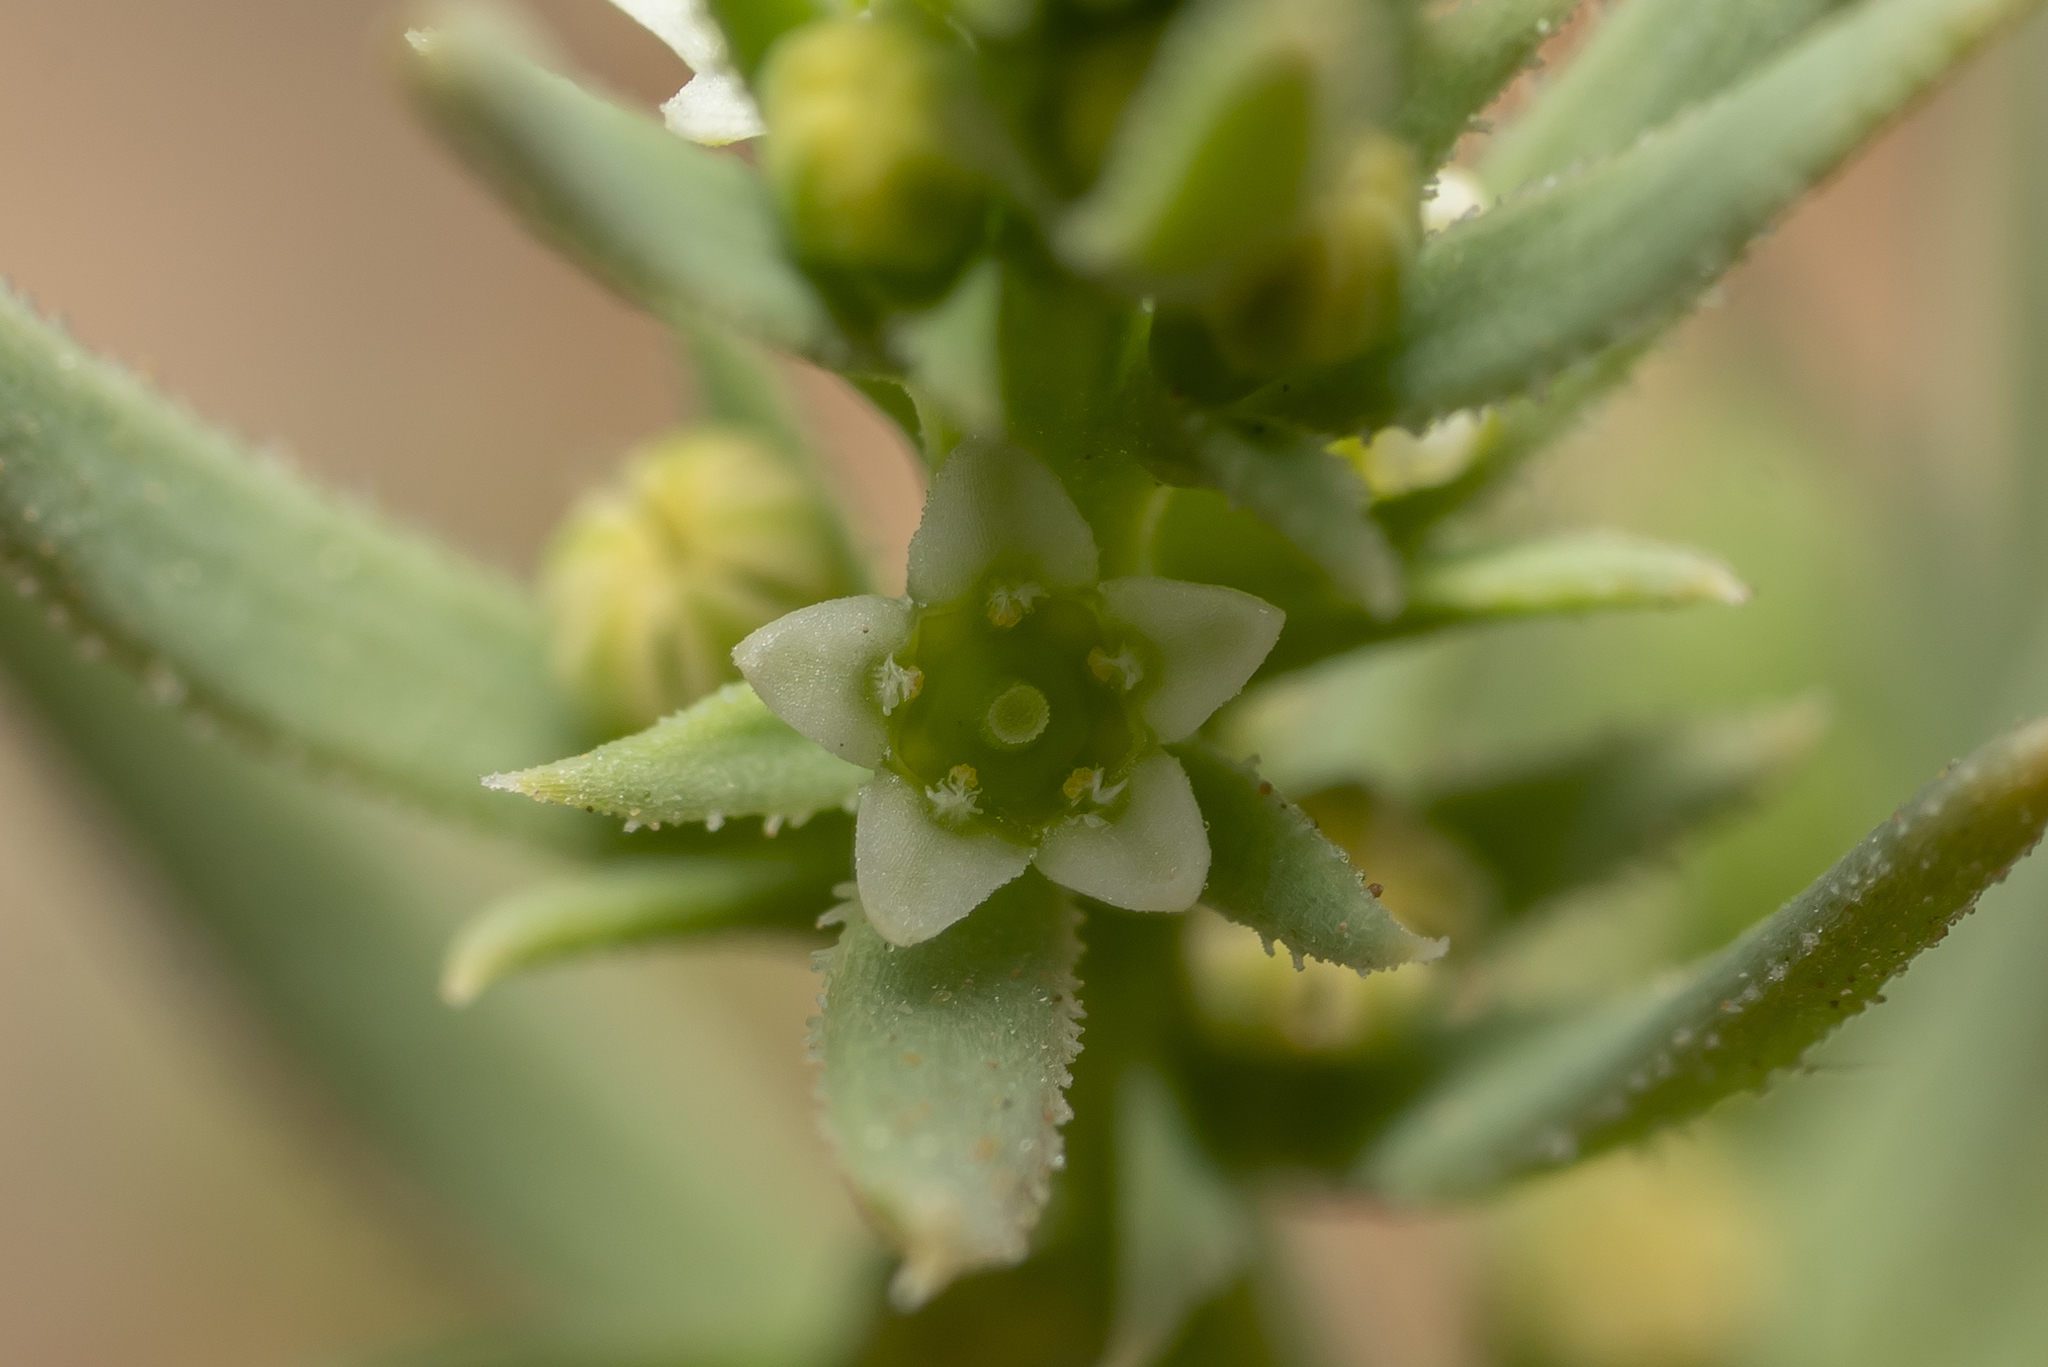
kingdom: Plantae
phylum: Tracheophyta
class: Magnoliopsida
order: Santalales
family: Thesiaceae
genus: Thesium
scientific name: Thesium humile
